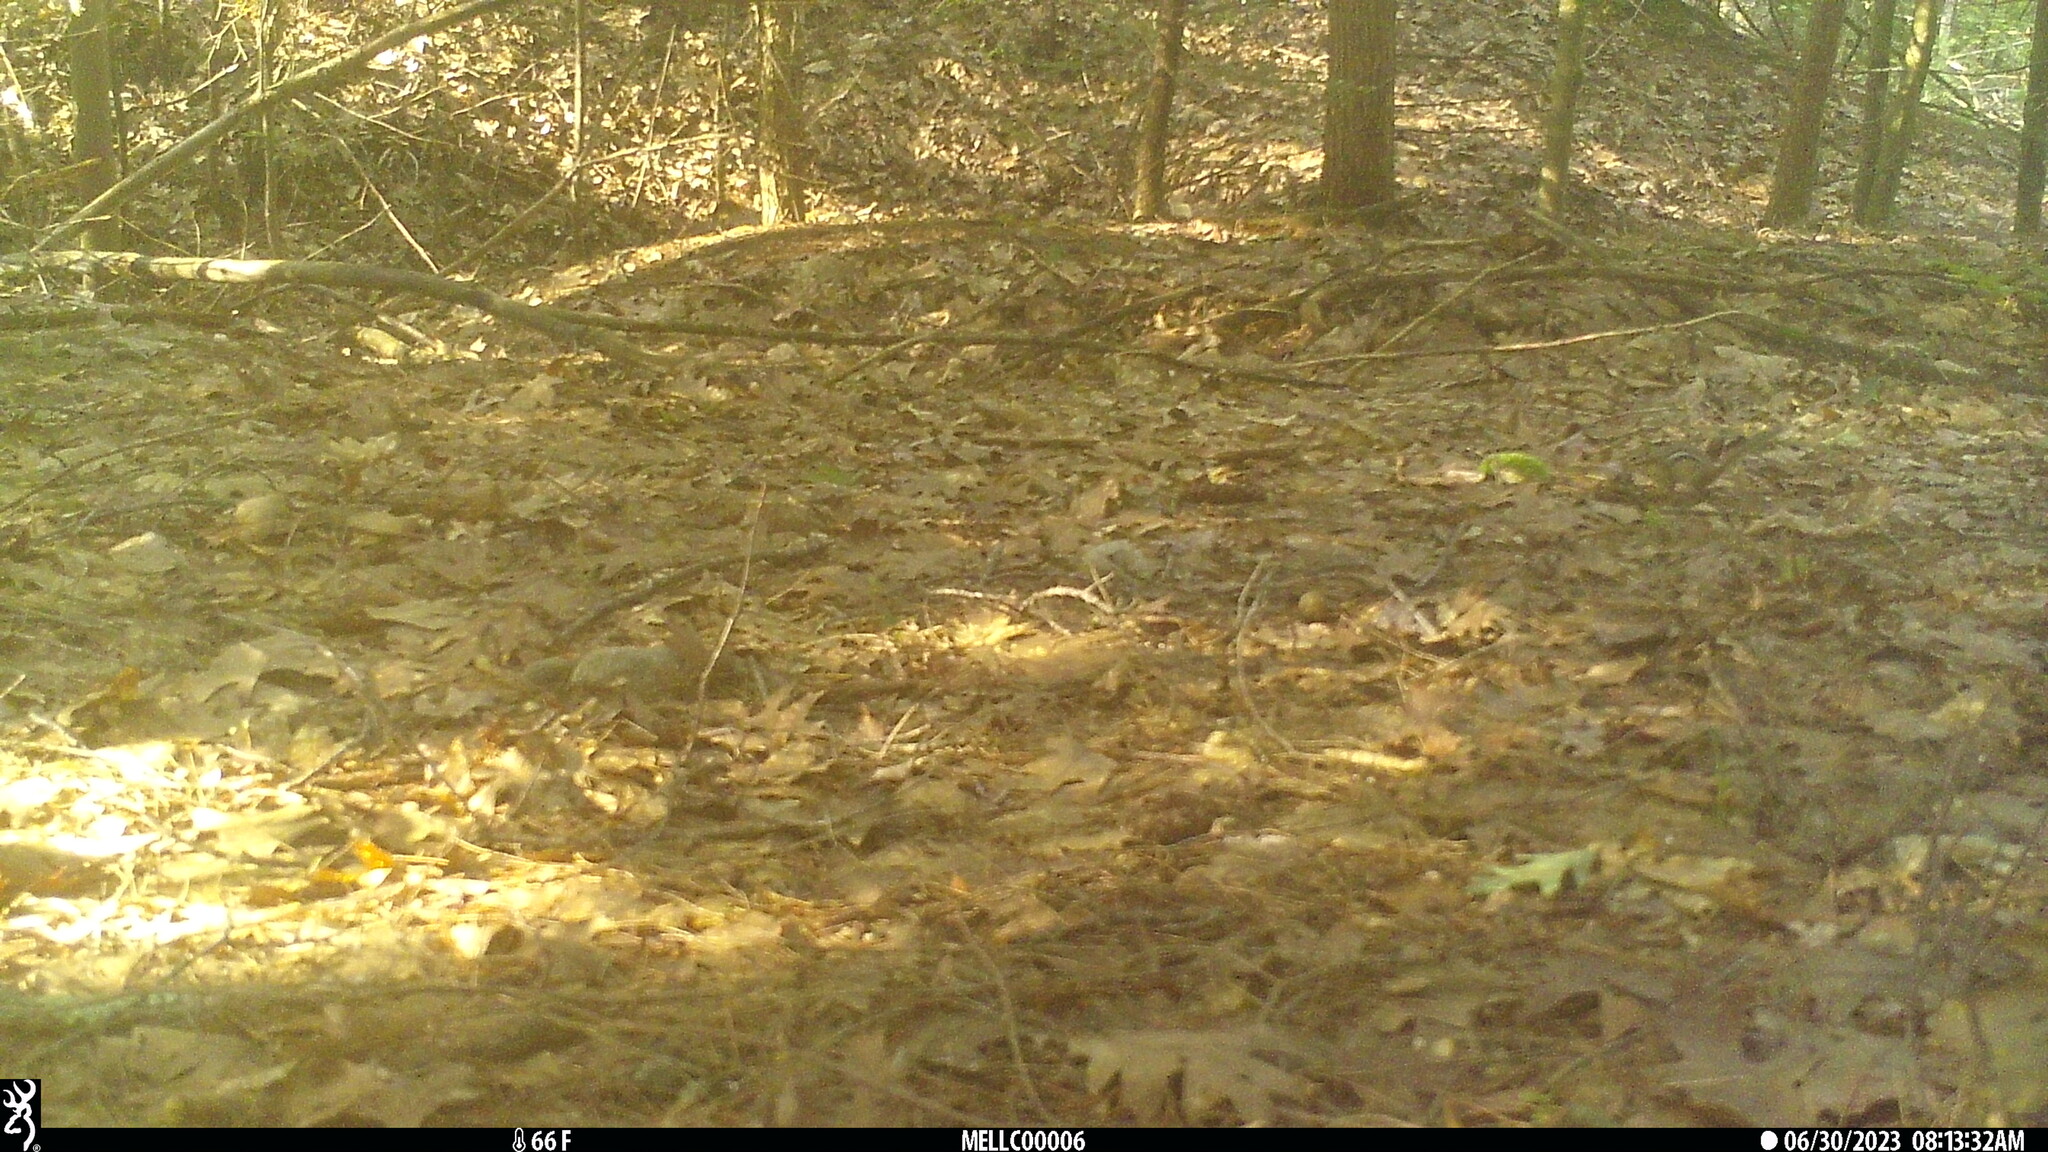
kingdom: Animalia
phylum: Chordata
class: Mammalia
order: Rodentia
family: Sciuridae
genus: Tamias
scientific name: Tamias striatus
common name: Eastern chipmunk
